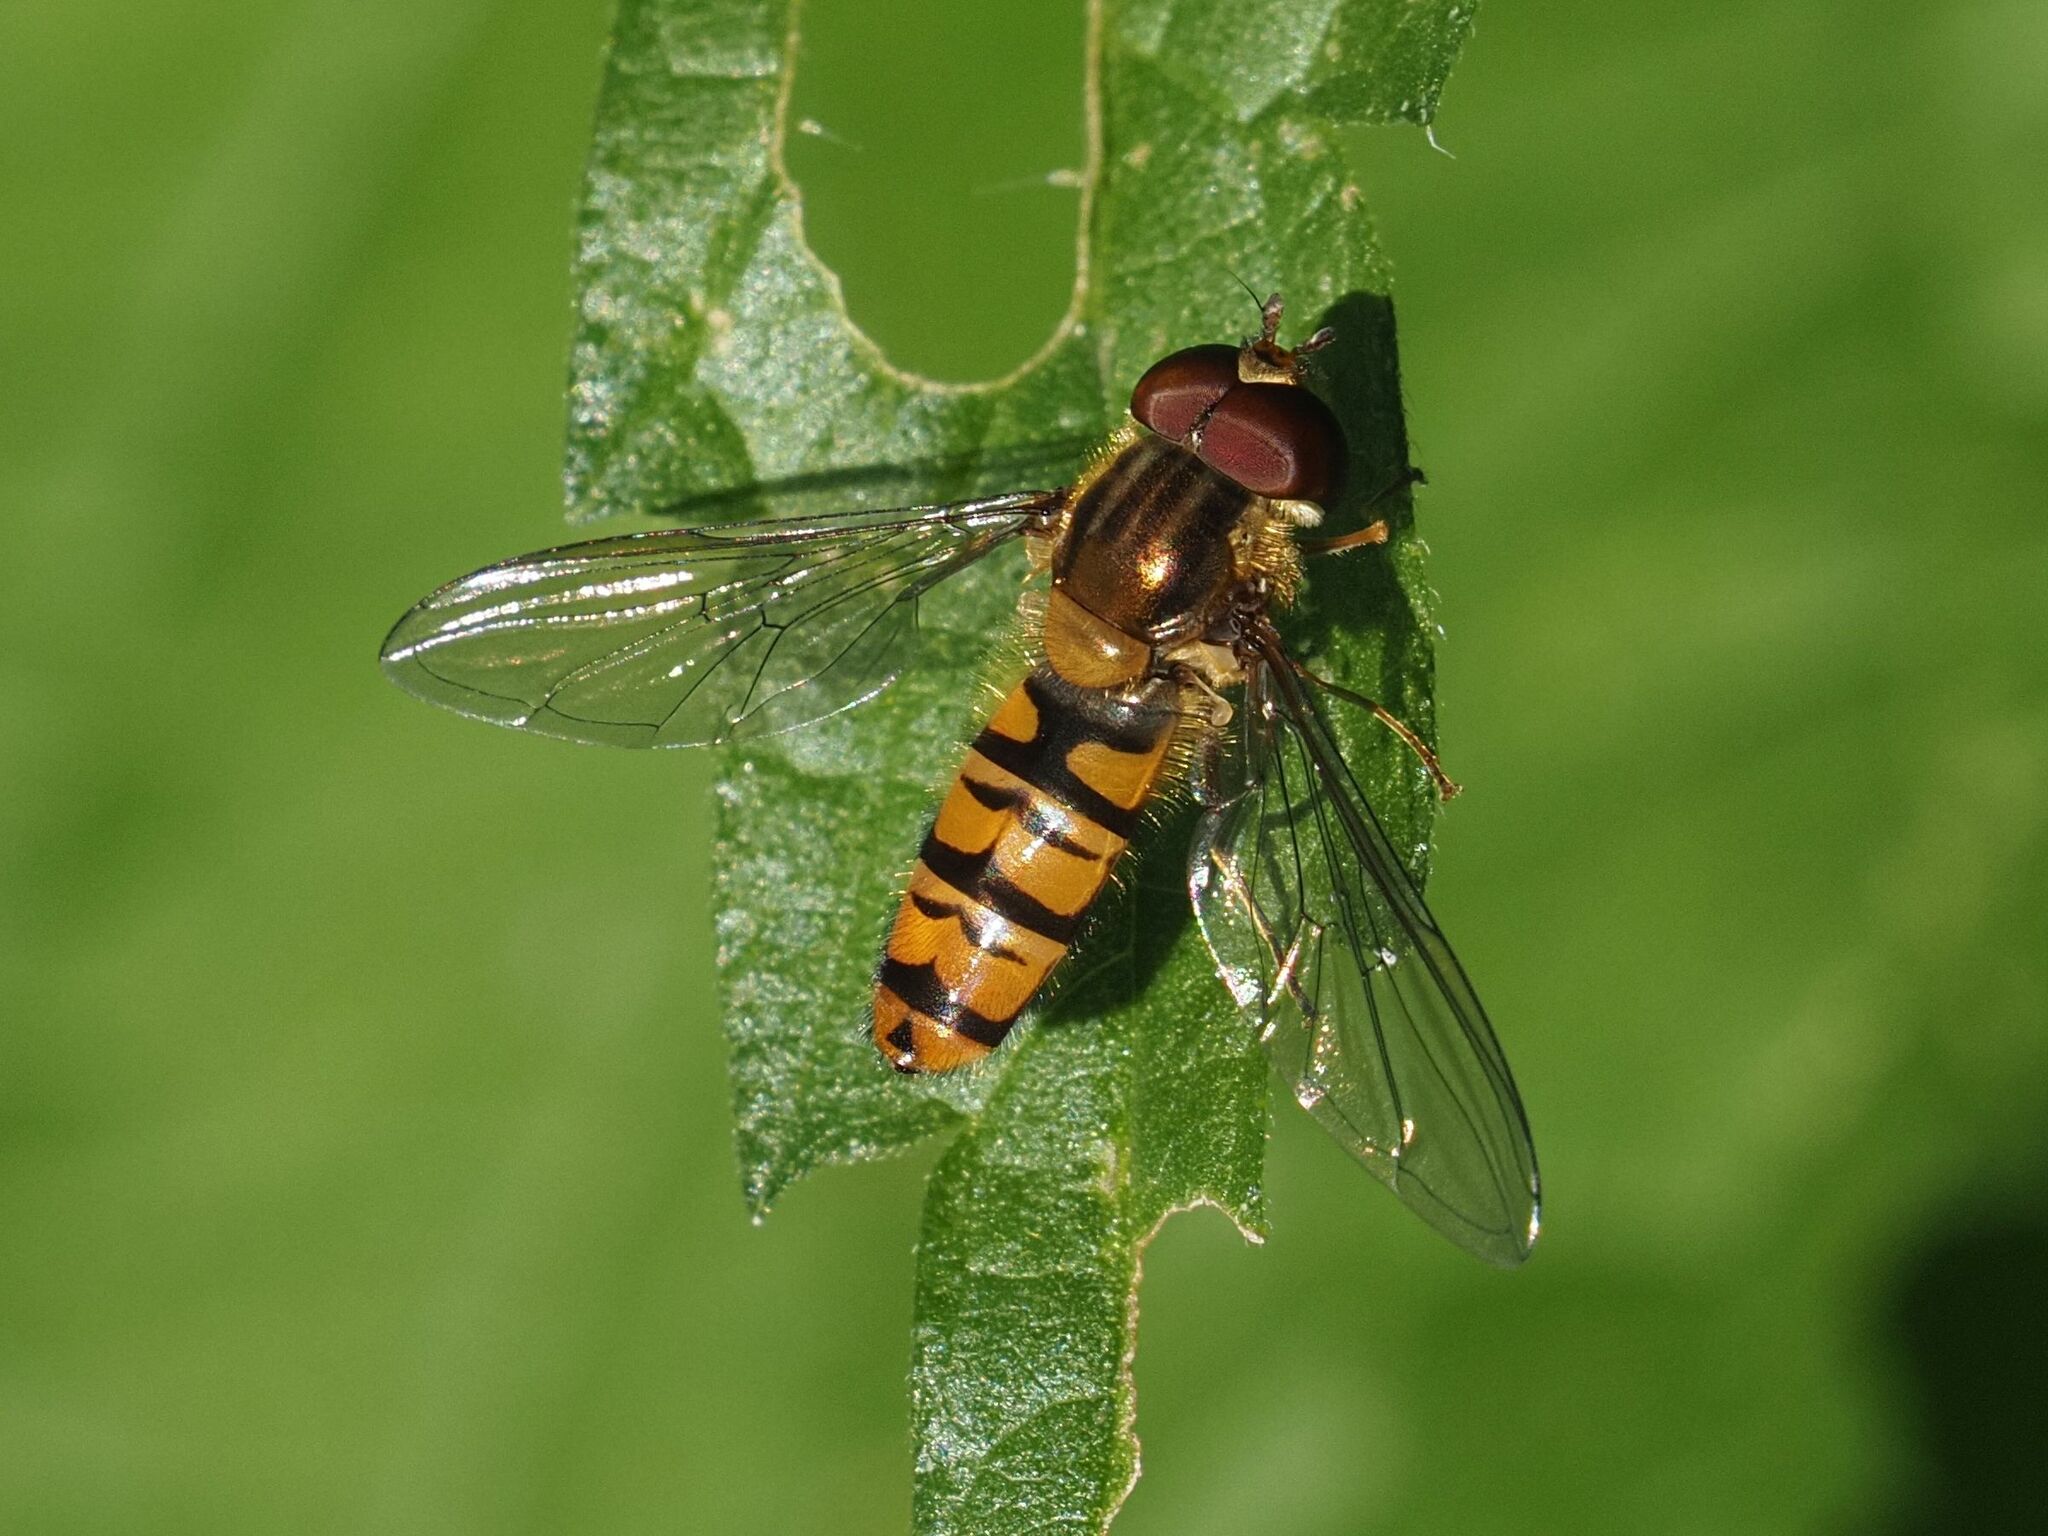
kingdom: Animalia
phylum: Arthropoda
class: Insecta
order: Diptera
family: Syrphidae
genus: Episyrphus
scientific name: Episyrphus balteatus
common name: Marmalade hoverfly
